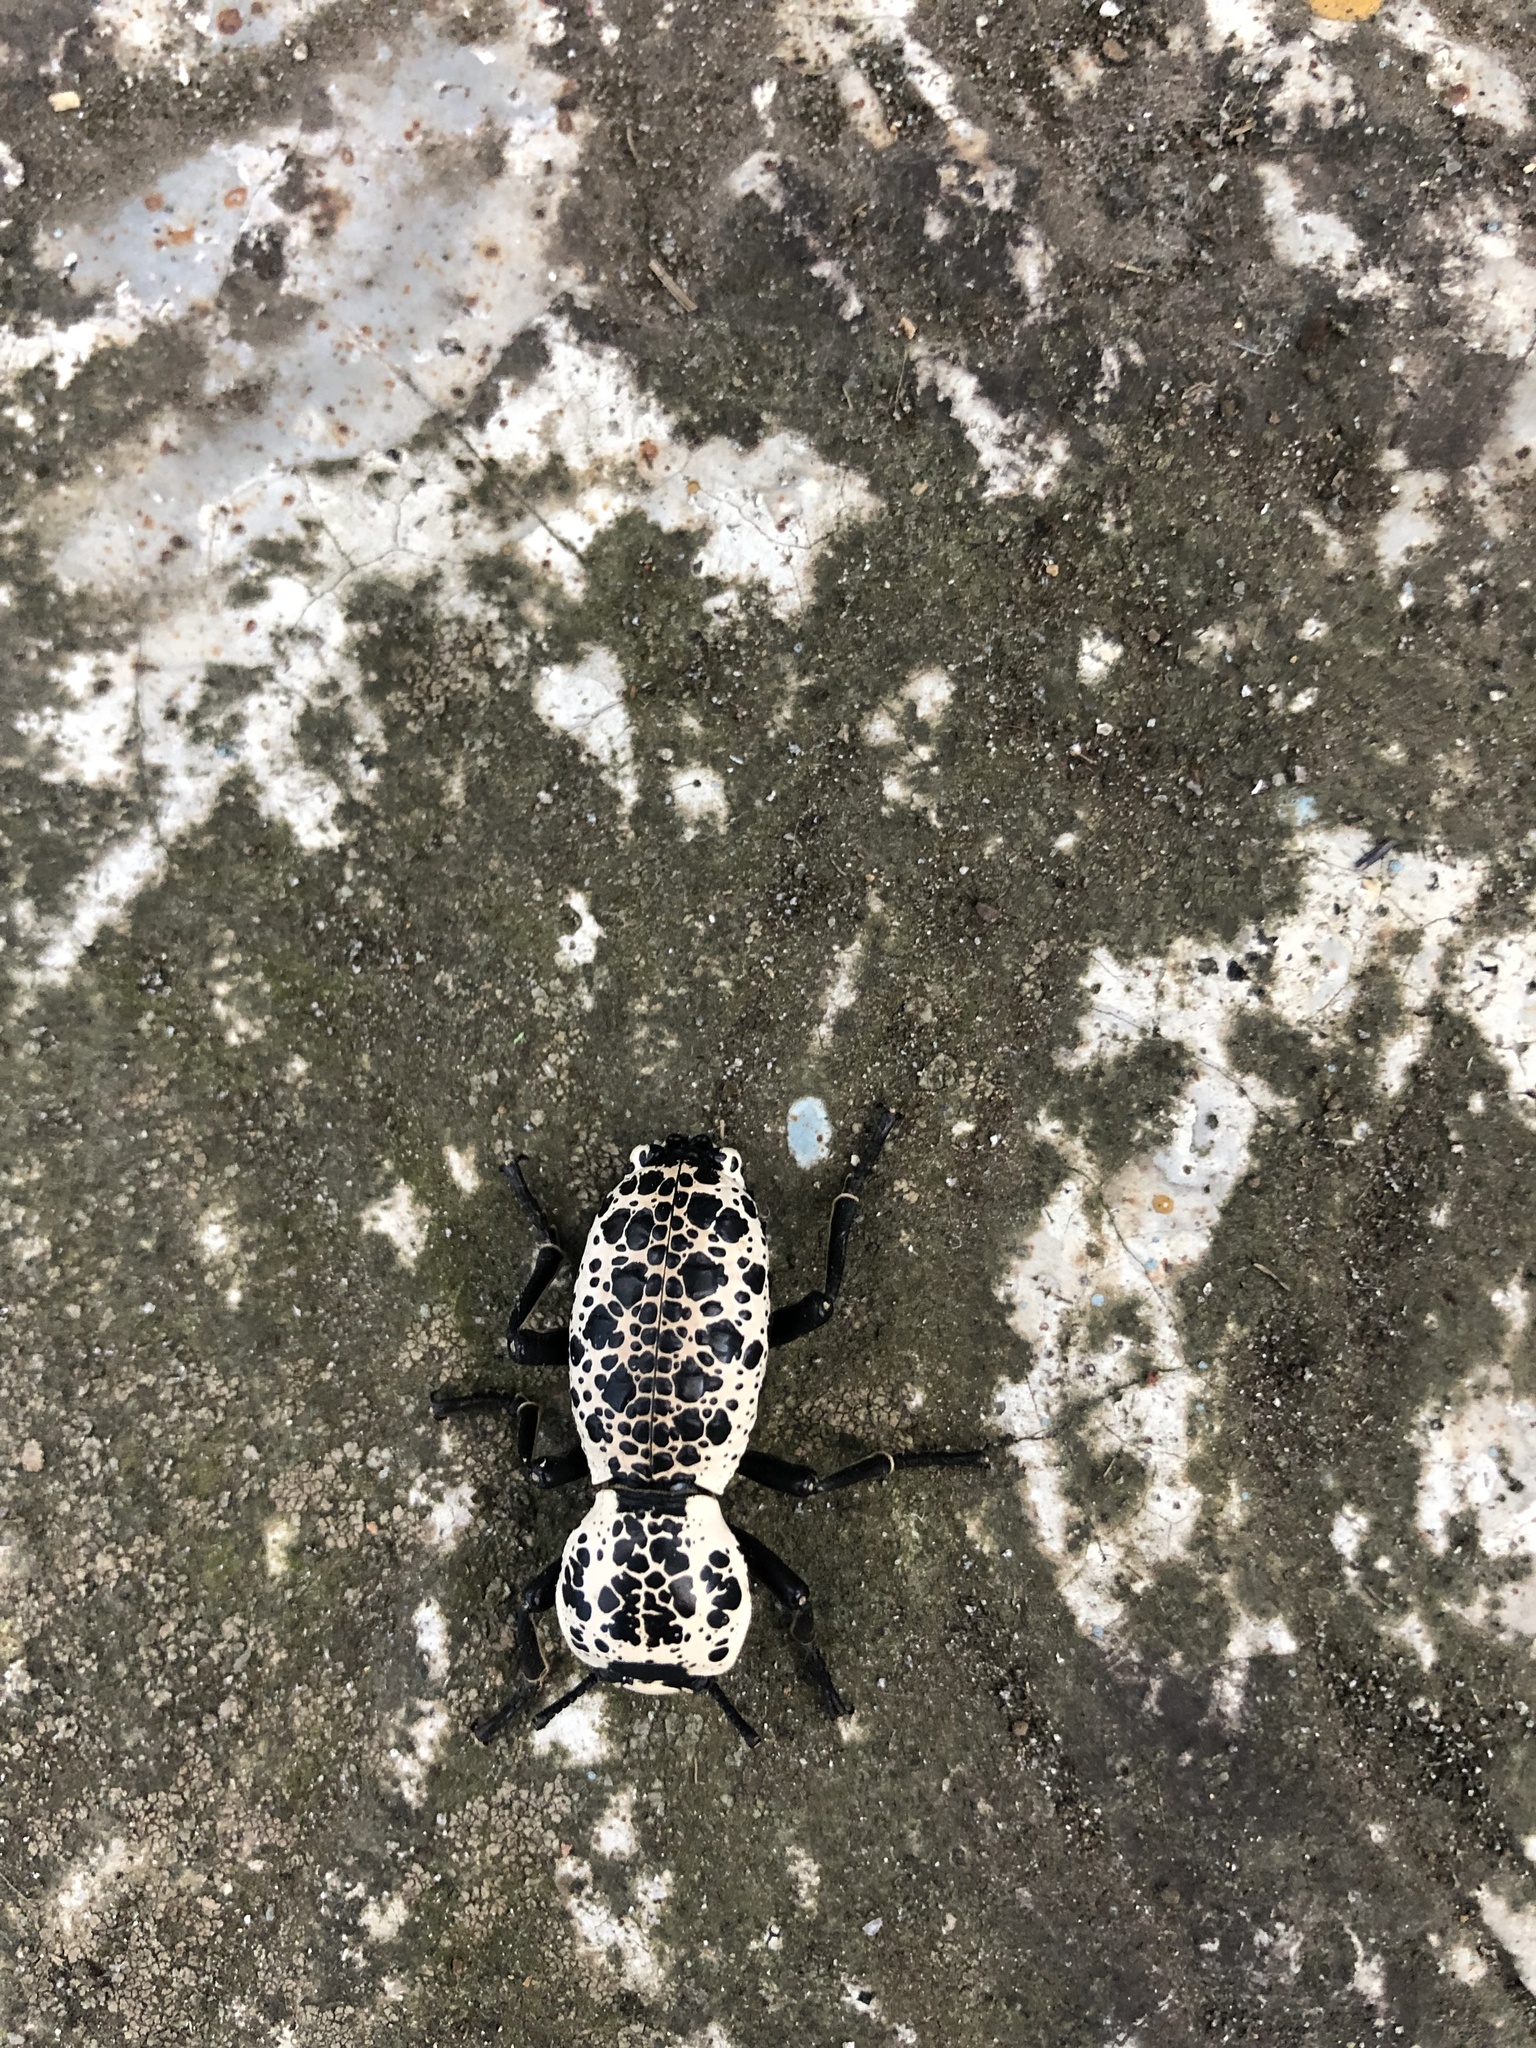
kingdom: Animalia
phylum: Arthropoda
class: Insecta
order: Coleoptera
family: Zopheridae
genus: Zopherus
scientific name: Zopherus nodulosus
